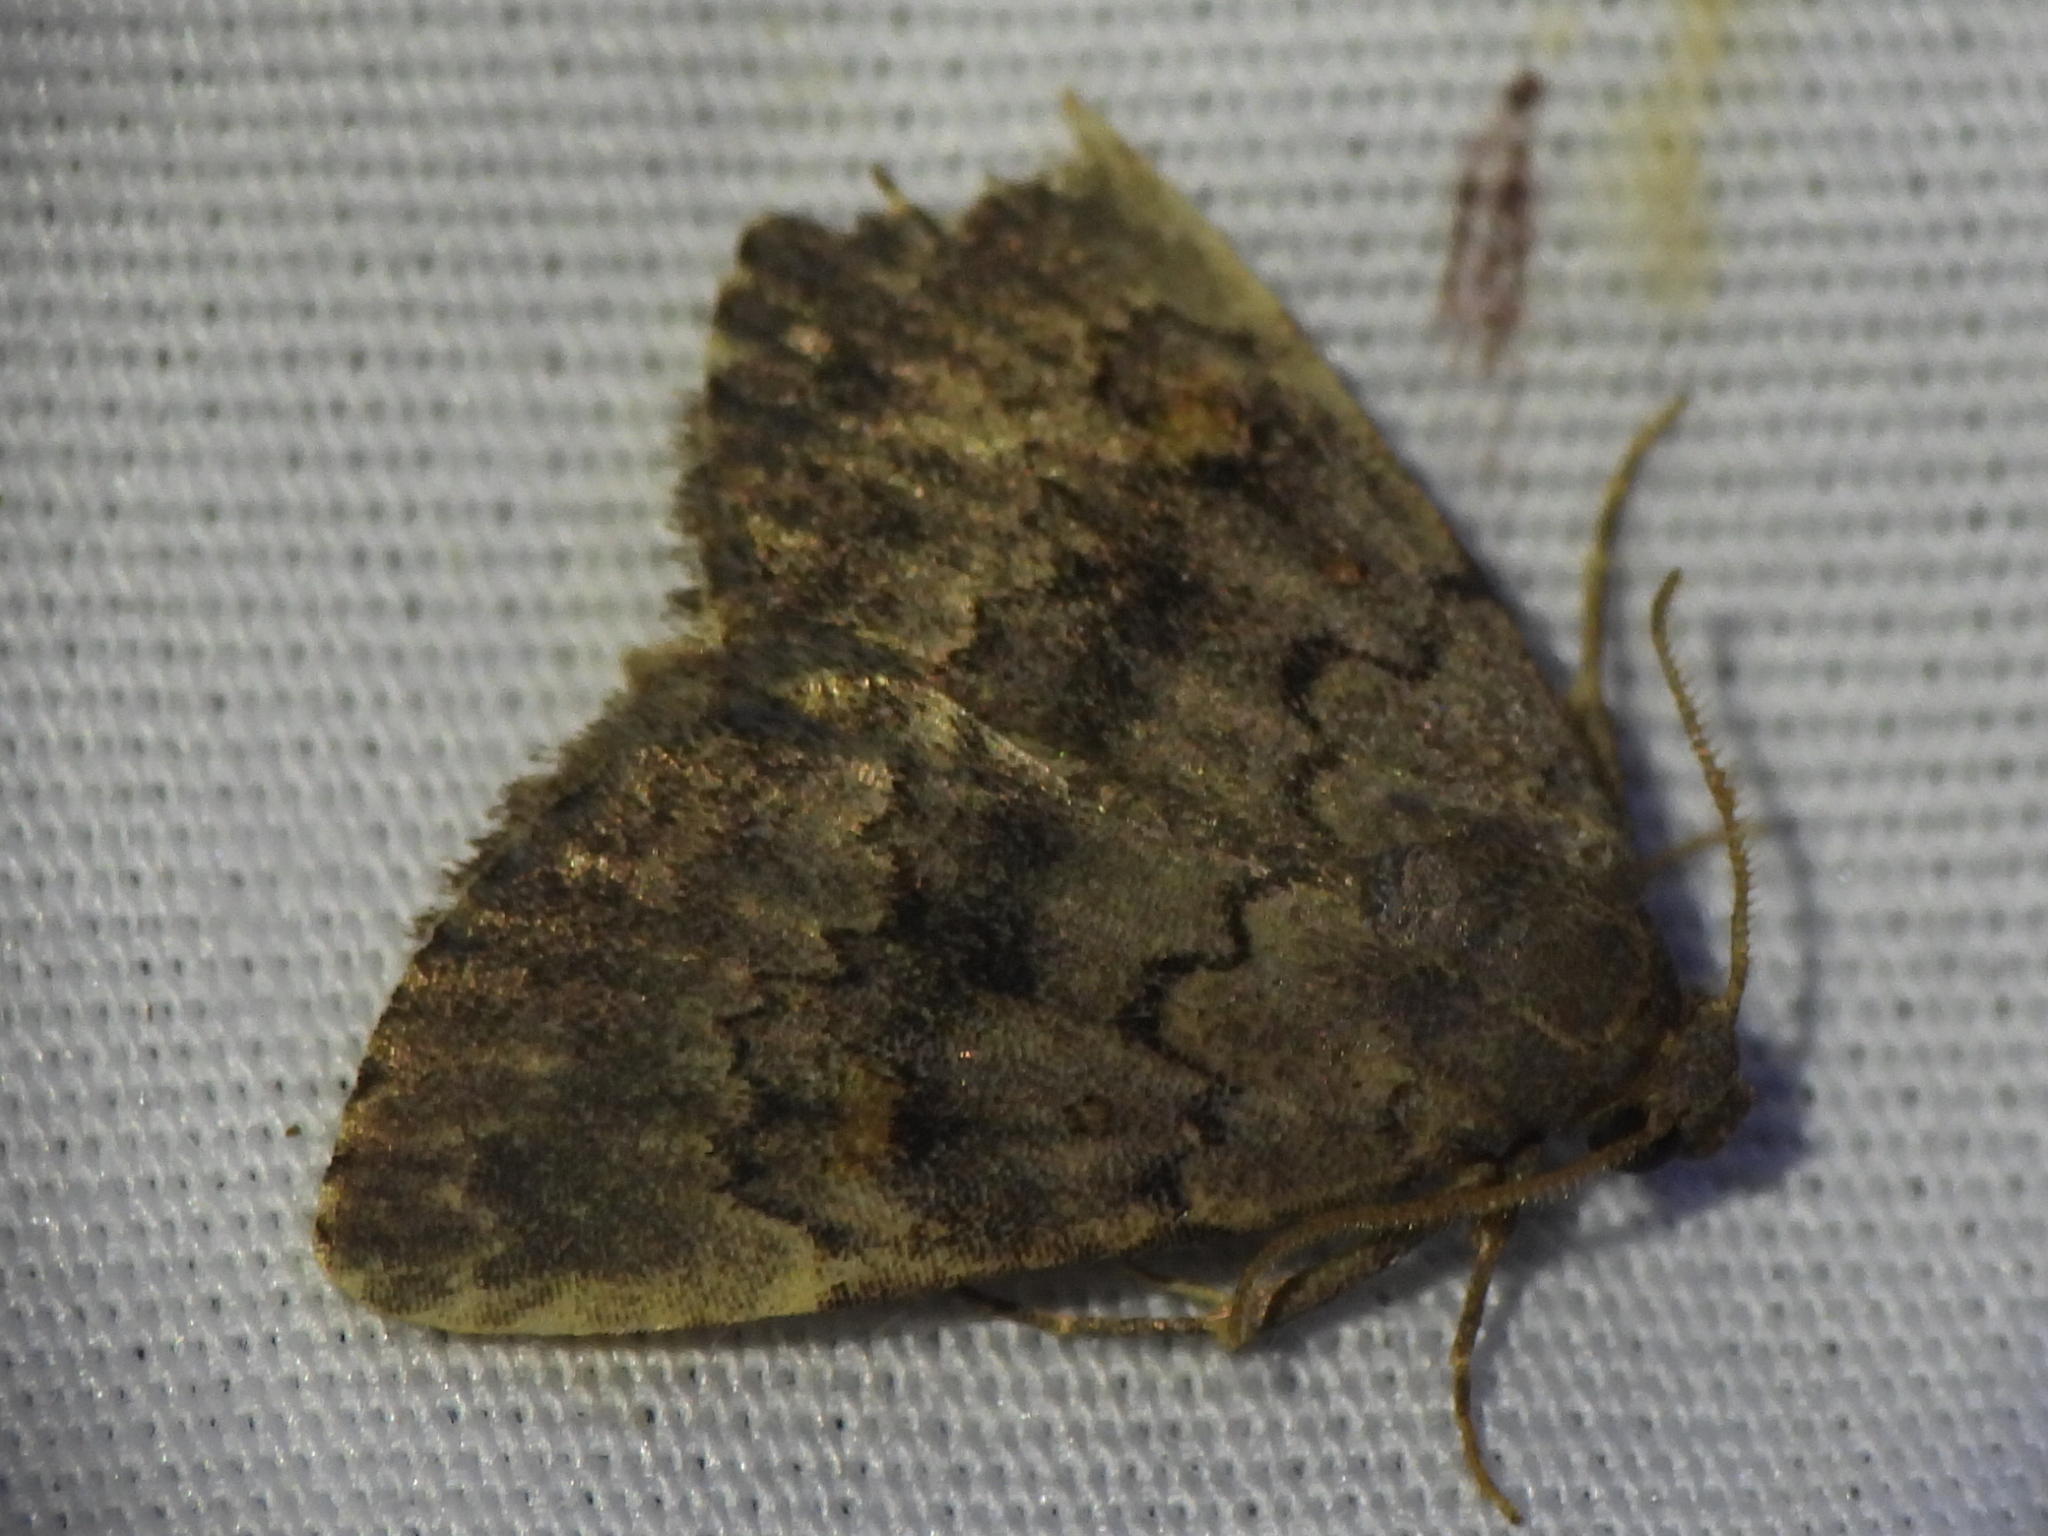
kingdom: Animalia
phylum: Arthropoda
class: Insecta
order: Lepidoptera
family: Erebidae
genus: Idia
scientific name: Idia aemula
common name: Common idia moth
